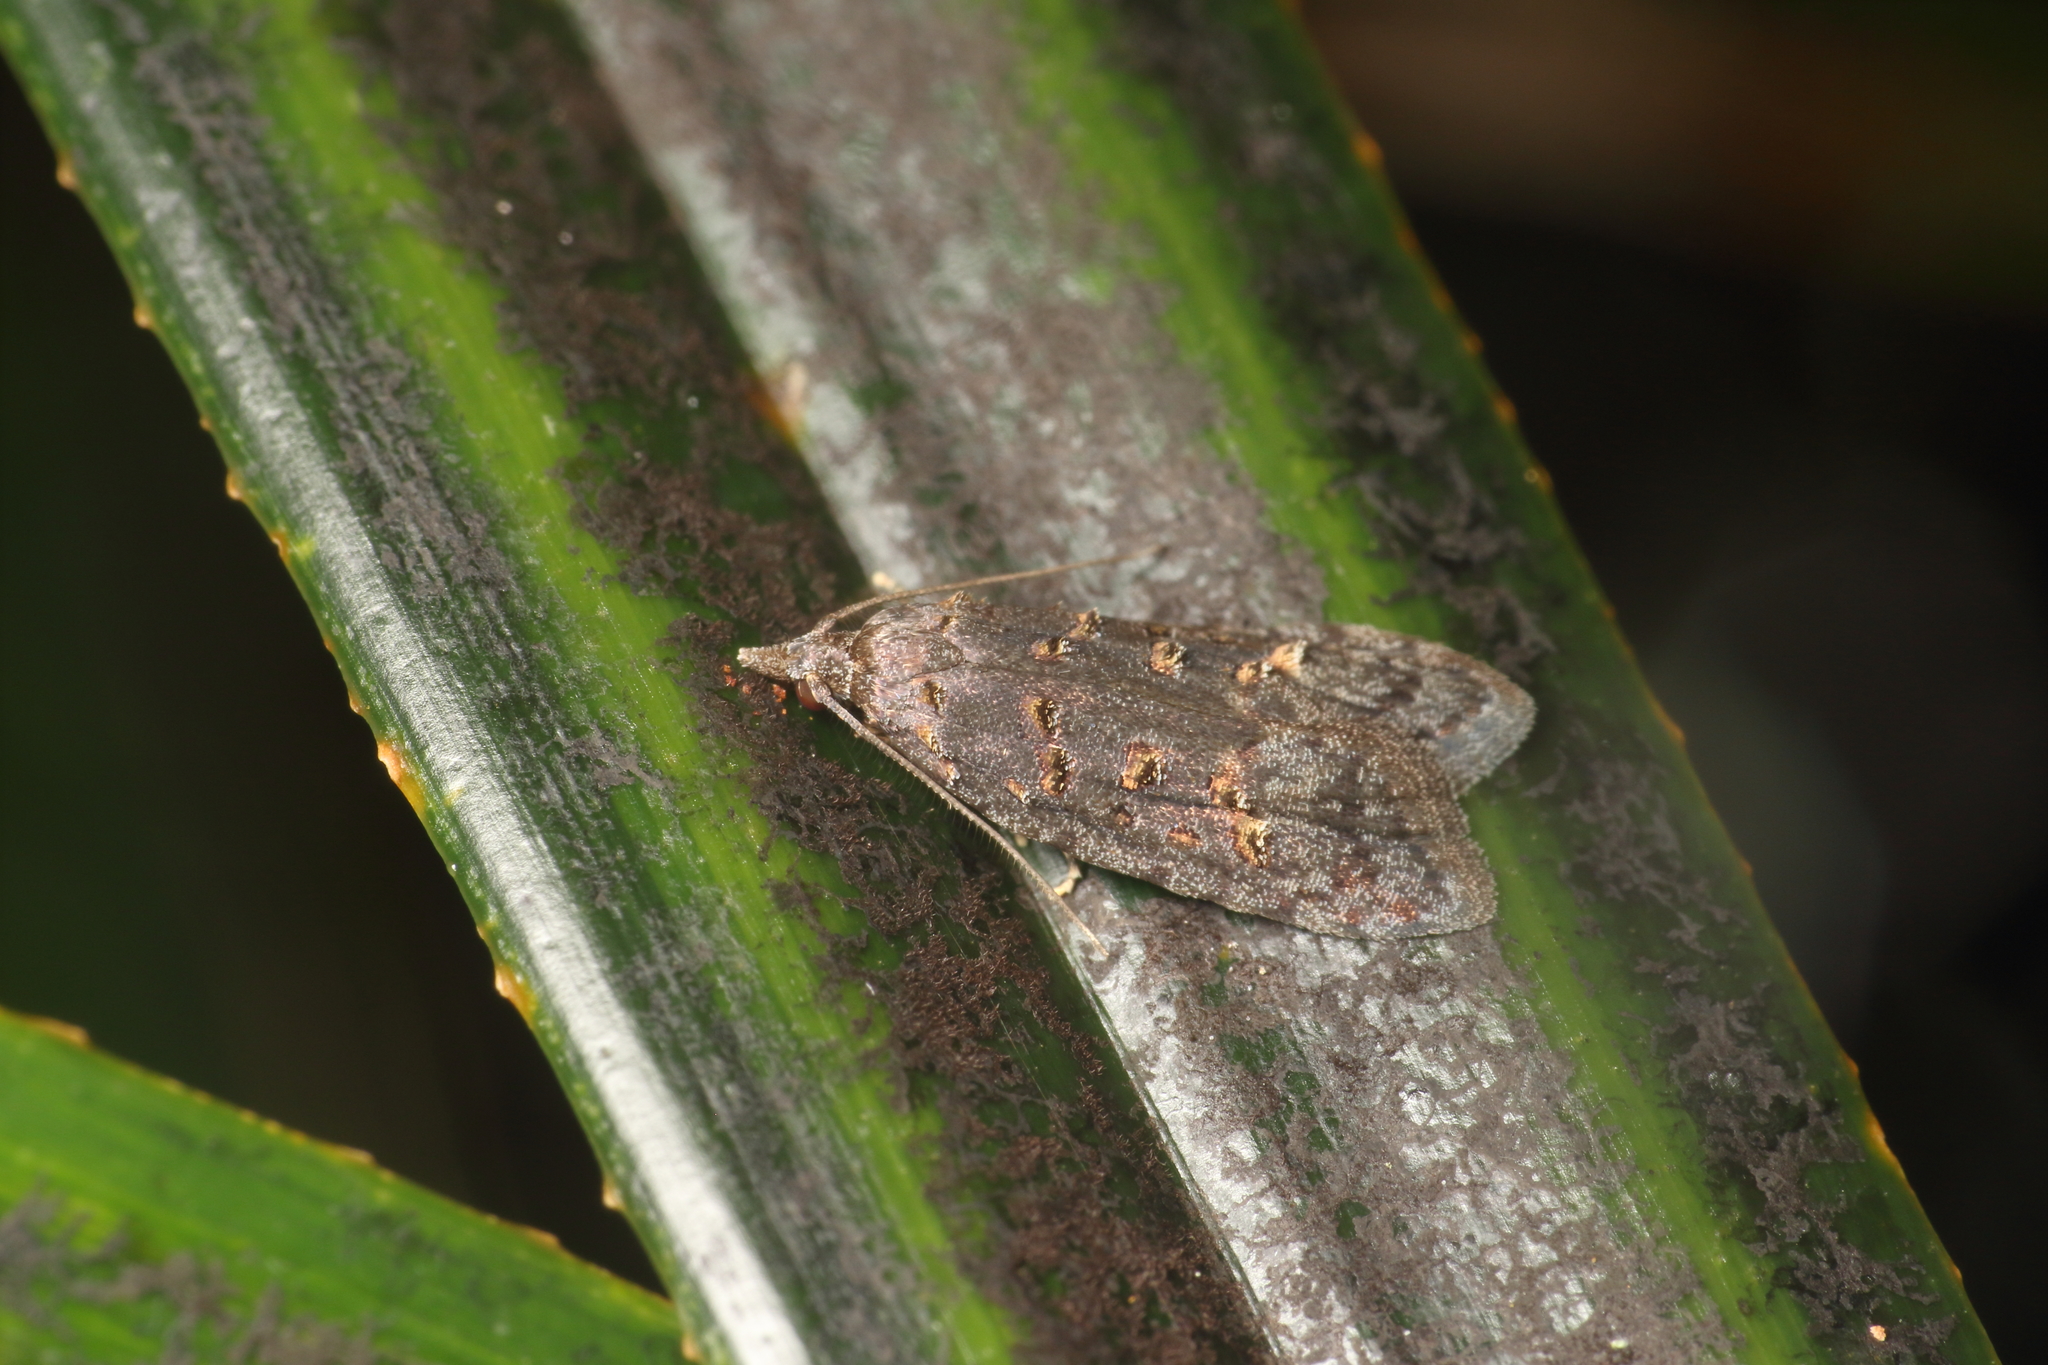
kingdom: Animalia
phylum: Arthropoda
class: Insecta
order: Lepidoptera
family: Carposinidae
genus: Carposina
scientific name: Carposina
